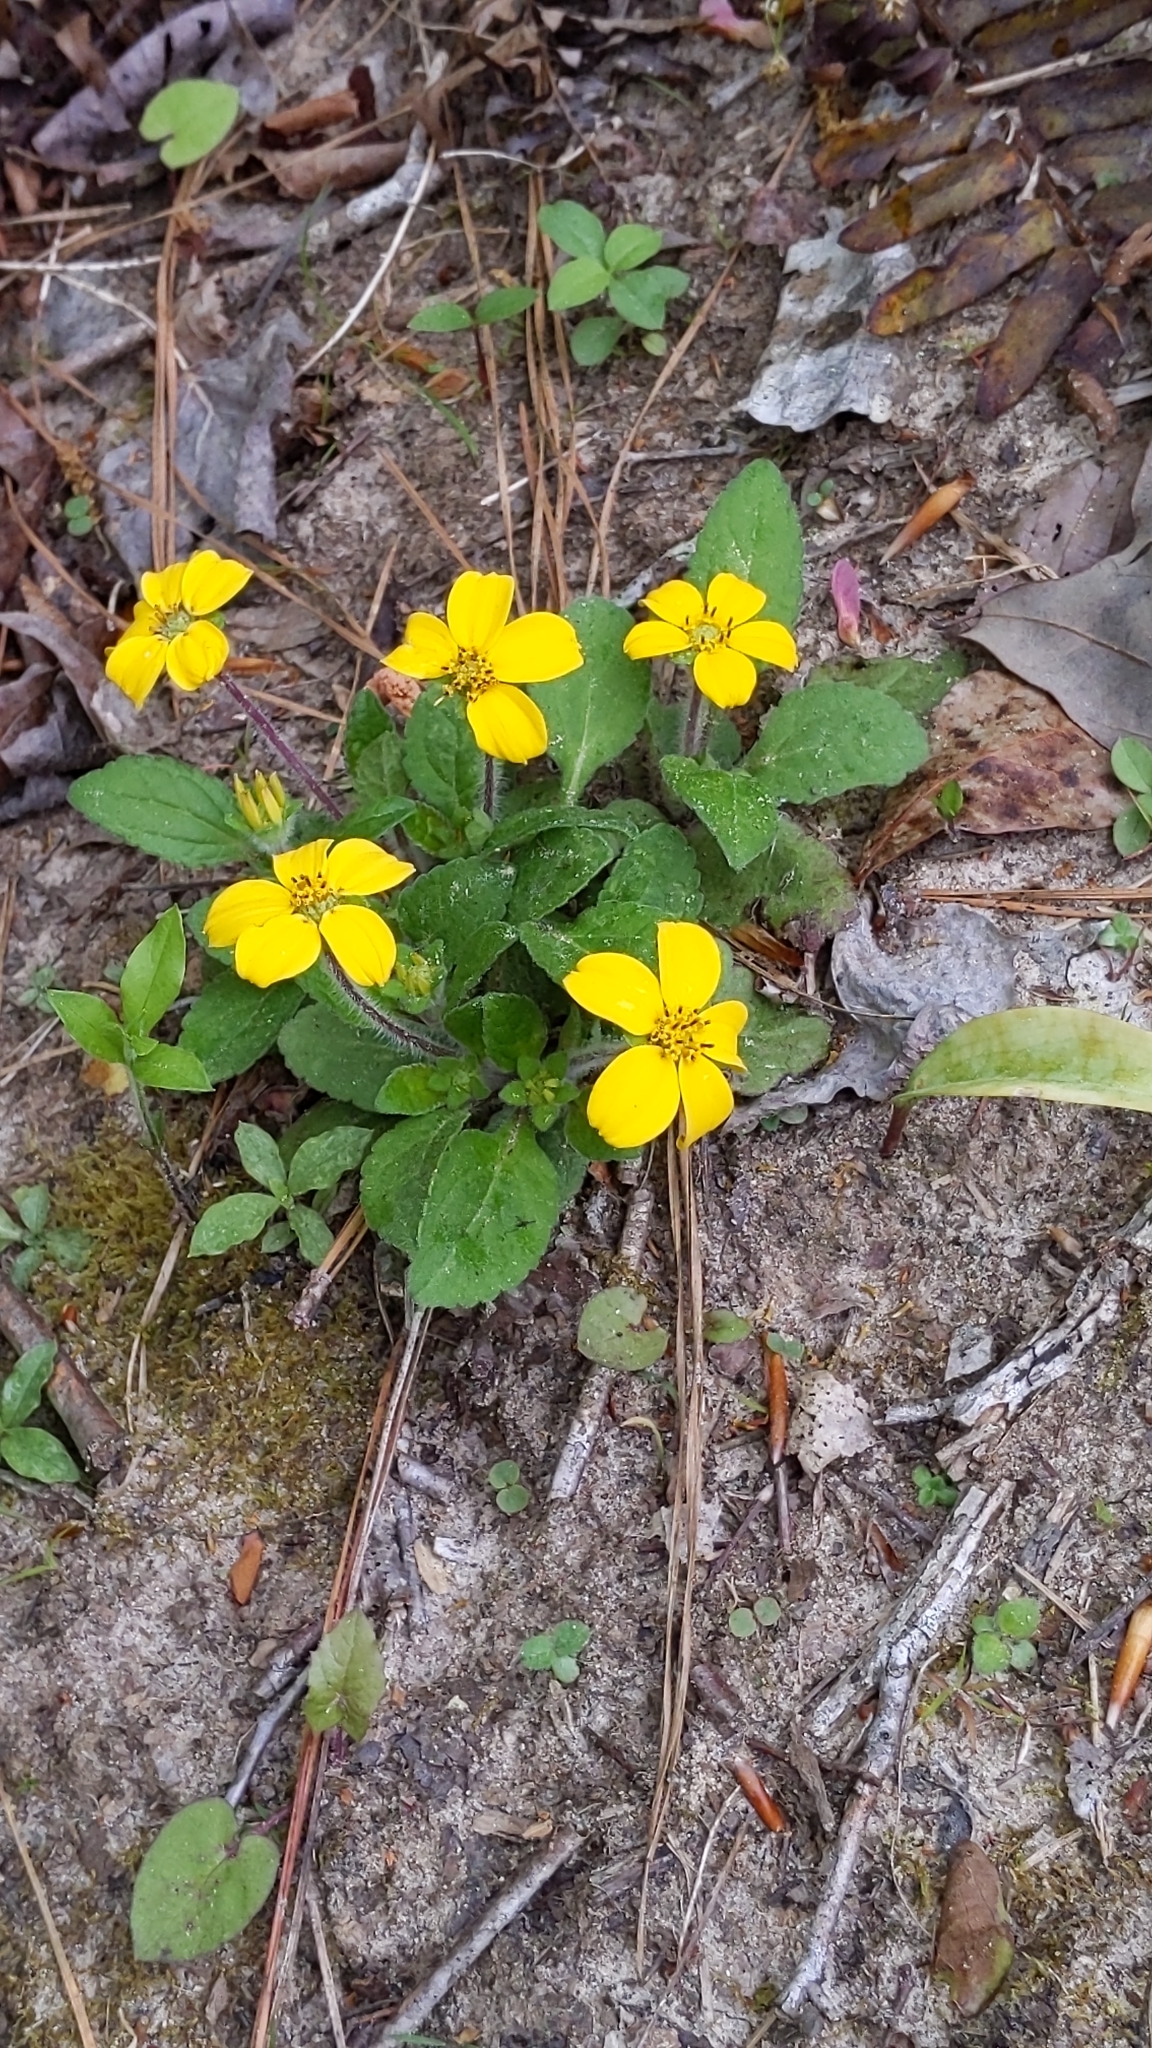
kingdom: Plantae
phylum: Tracheophyta
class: Magnoliopsida
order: Asterales
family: Asteraceae
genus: Chrysogonum
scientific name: Chrysogonum virginianum
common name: Golden-knee
